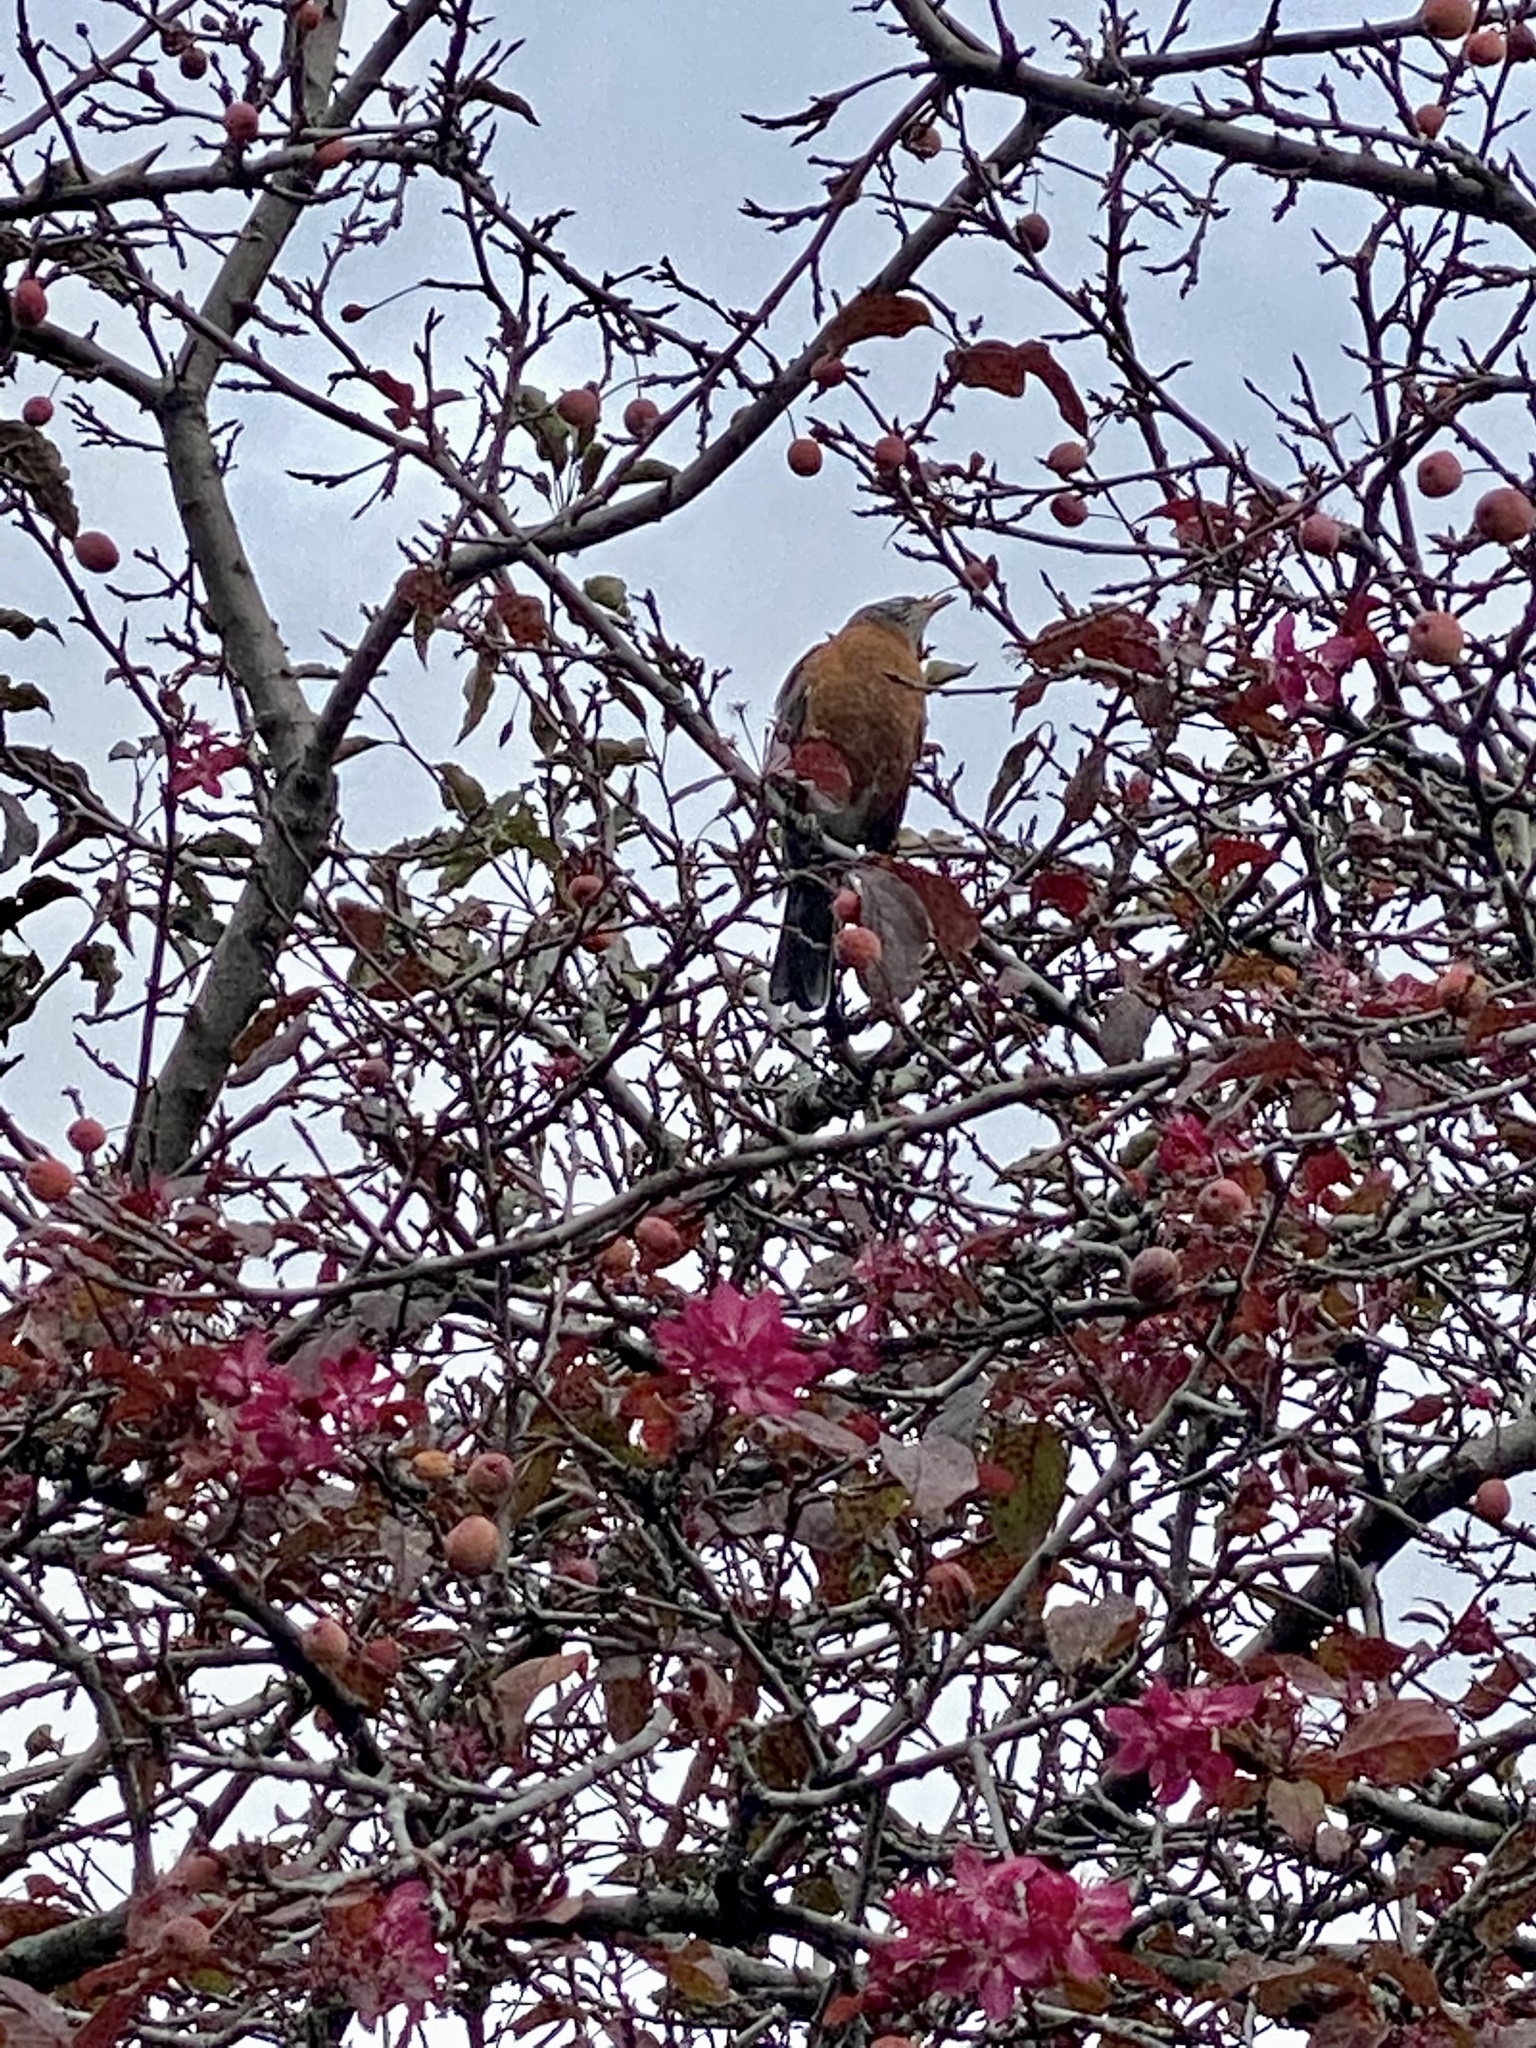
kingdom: Animalia
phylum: Chordata
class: Aves
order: Passeriformes
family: Turdidae
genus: Turdus
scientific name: Turdus migratorius
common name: American robin
